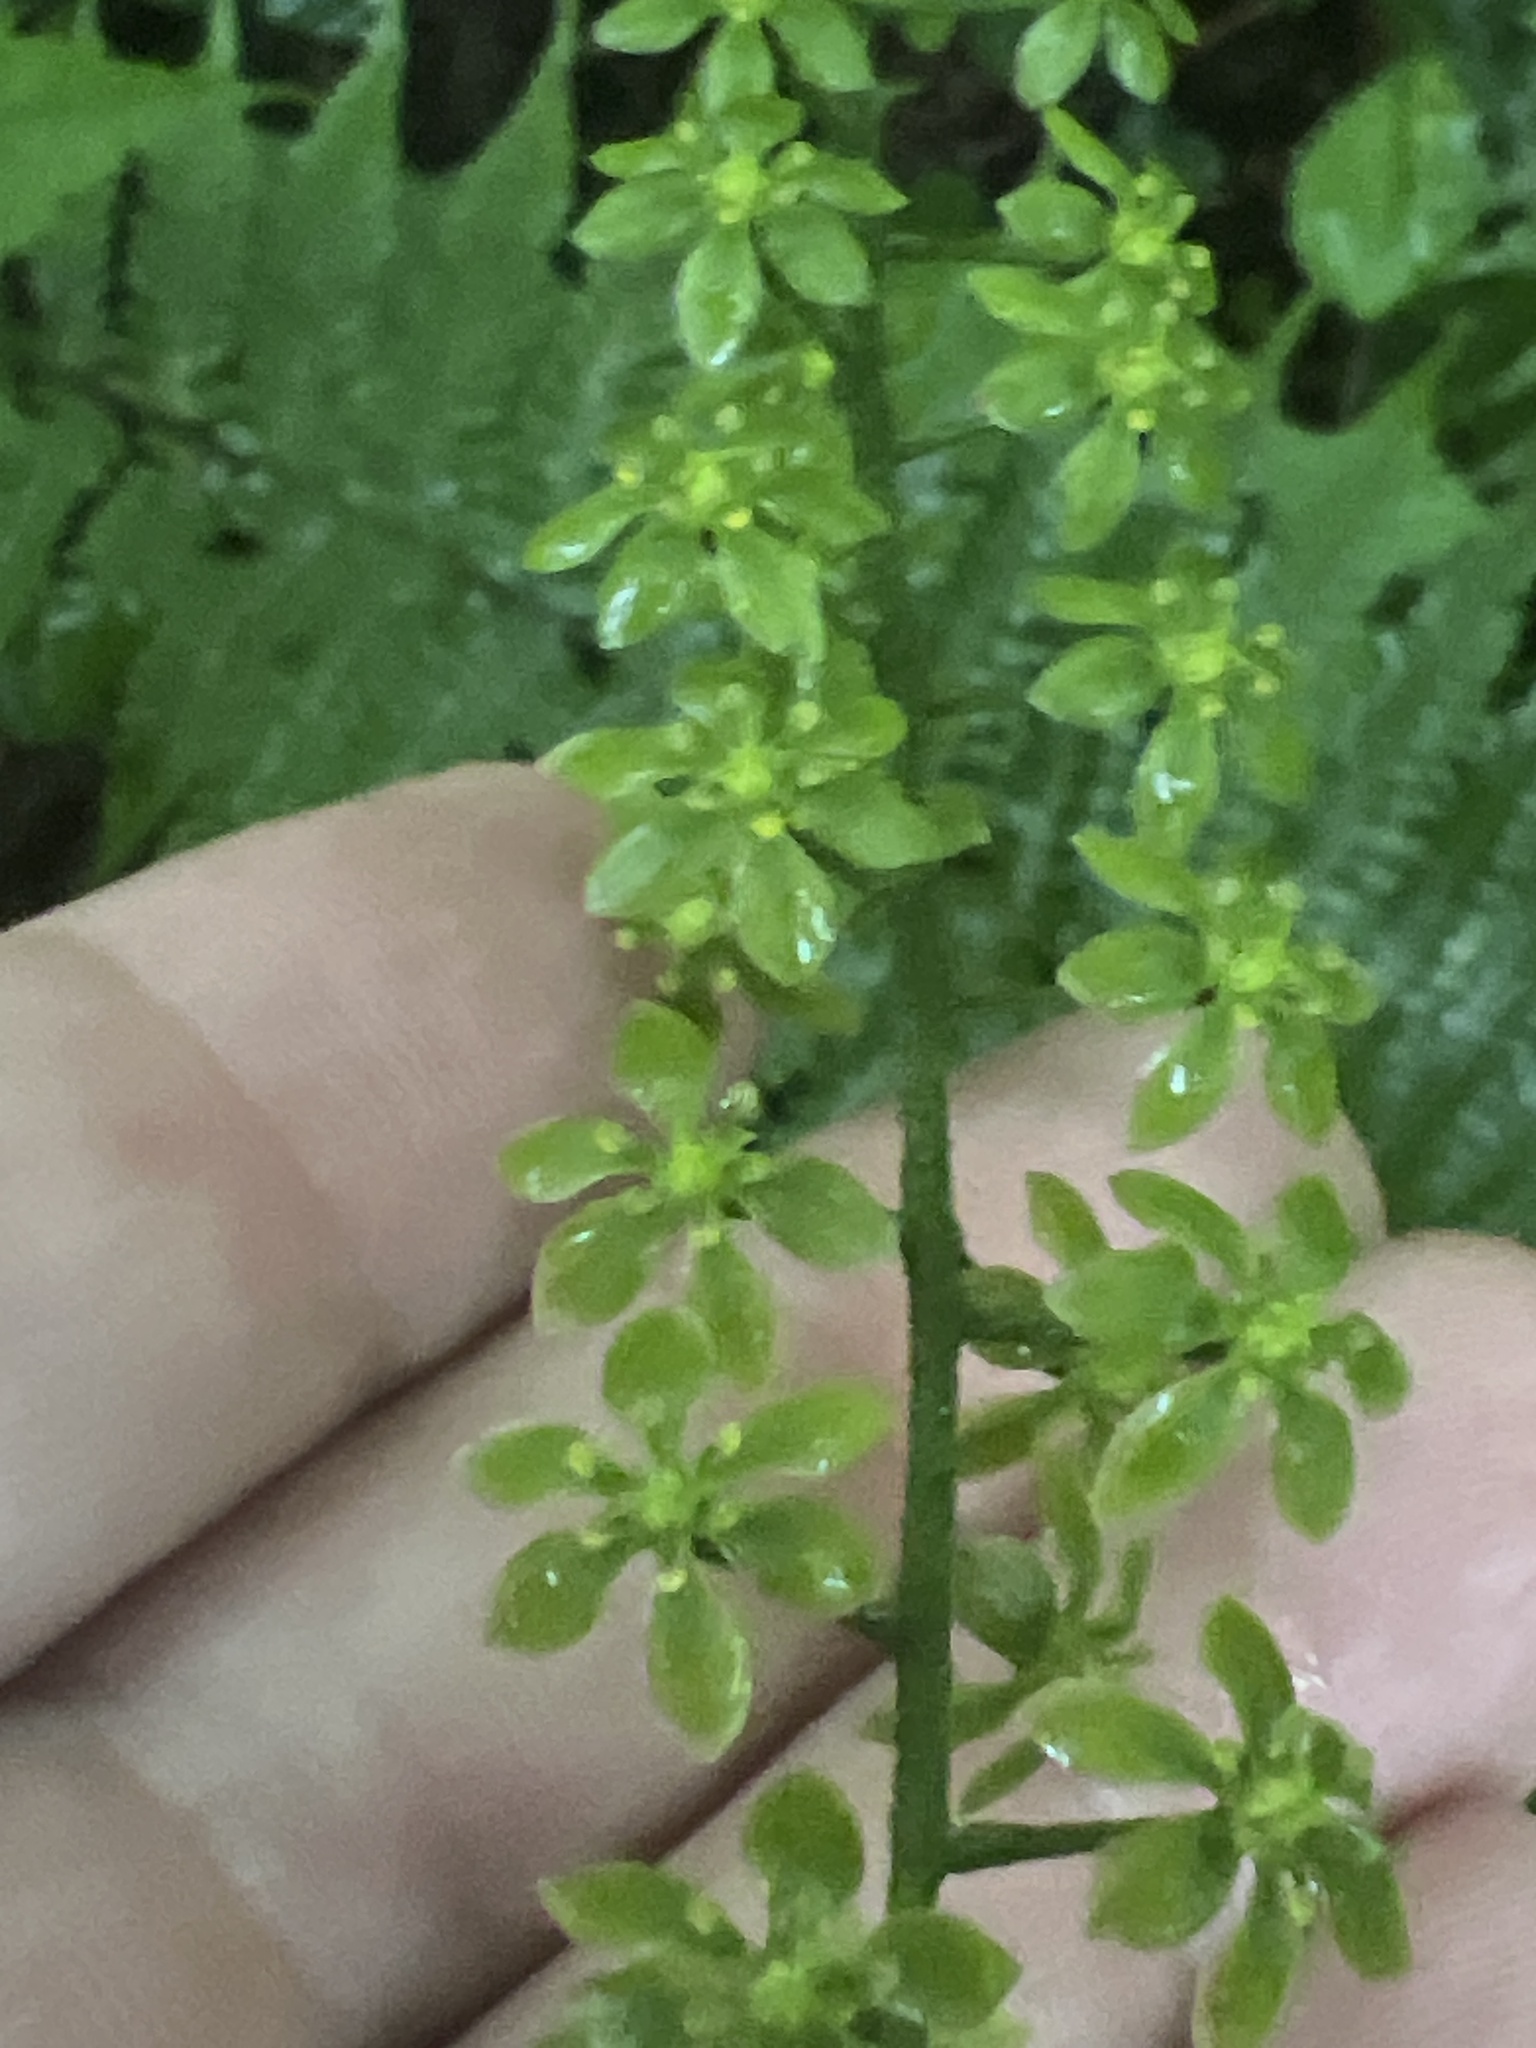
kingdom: Plantae
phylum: Tracheophyta
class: Liliopsida
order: Liliales
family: Melanthiaceae
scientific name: Melanthiaceae
